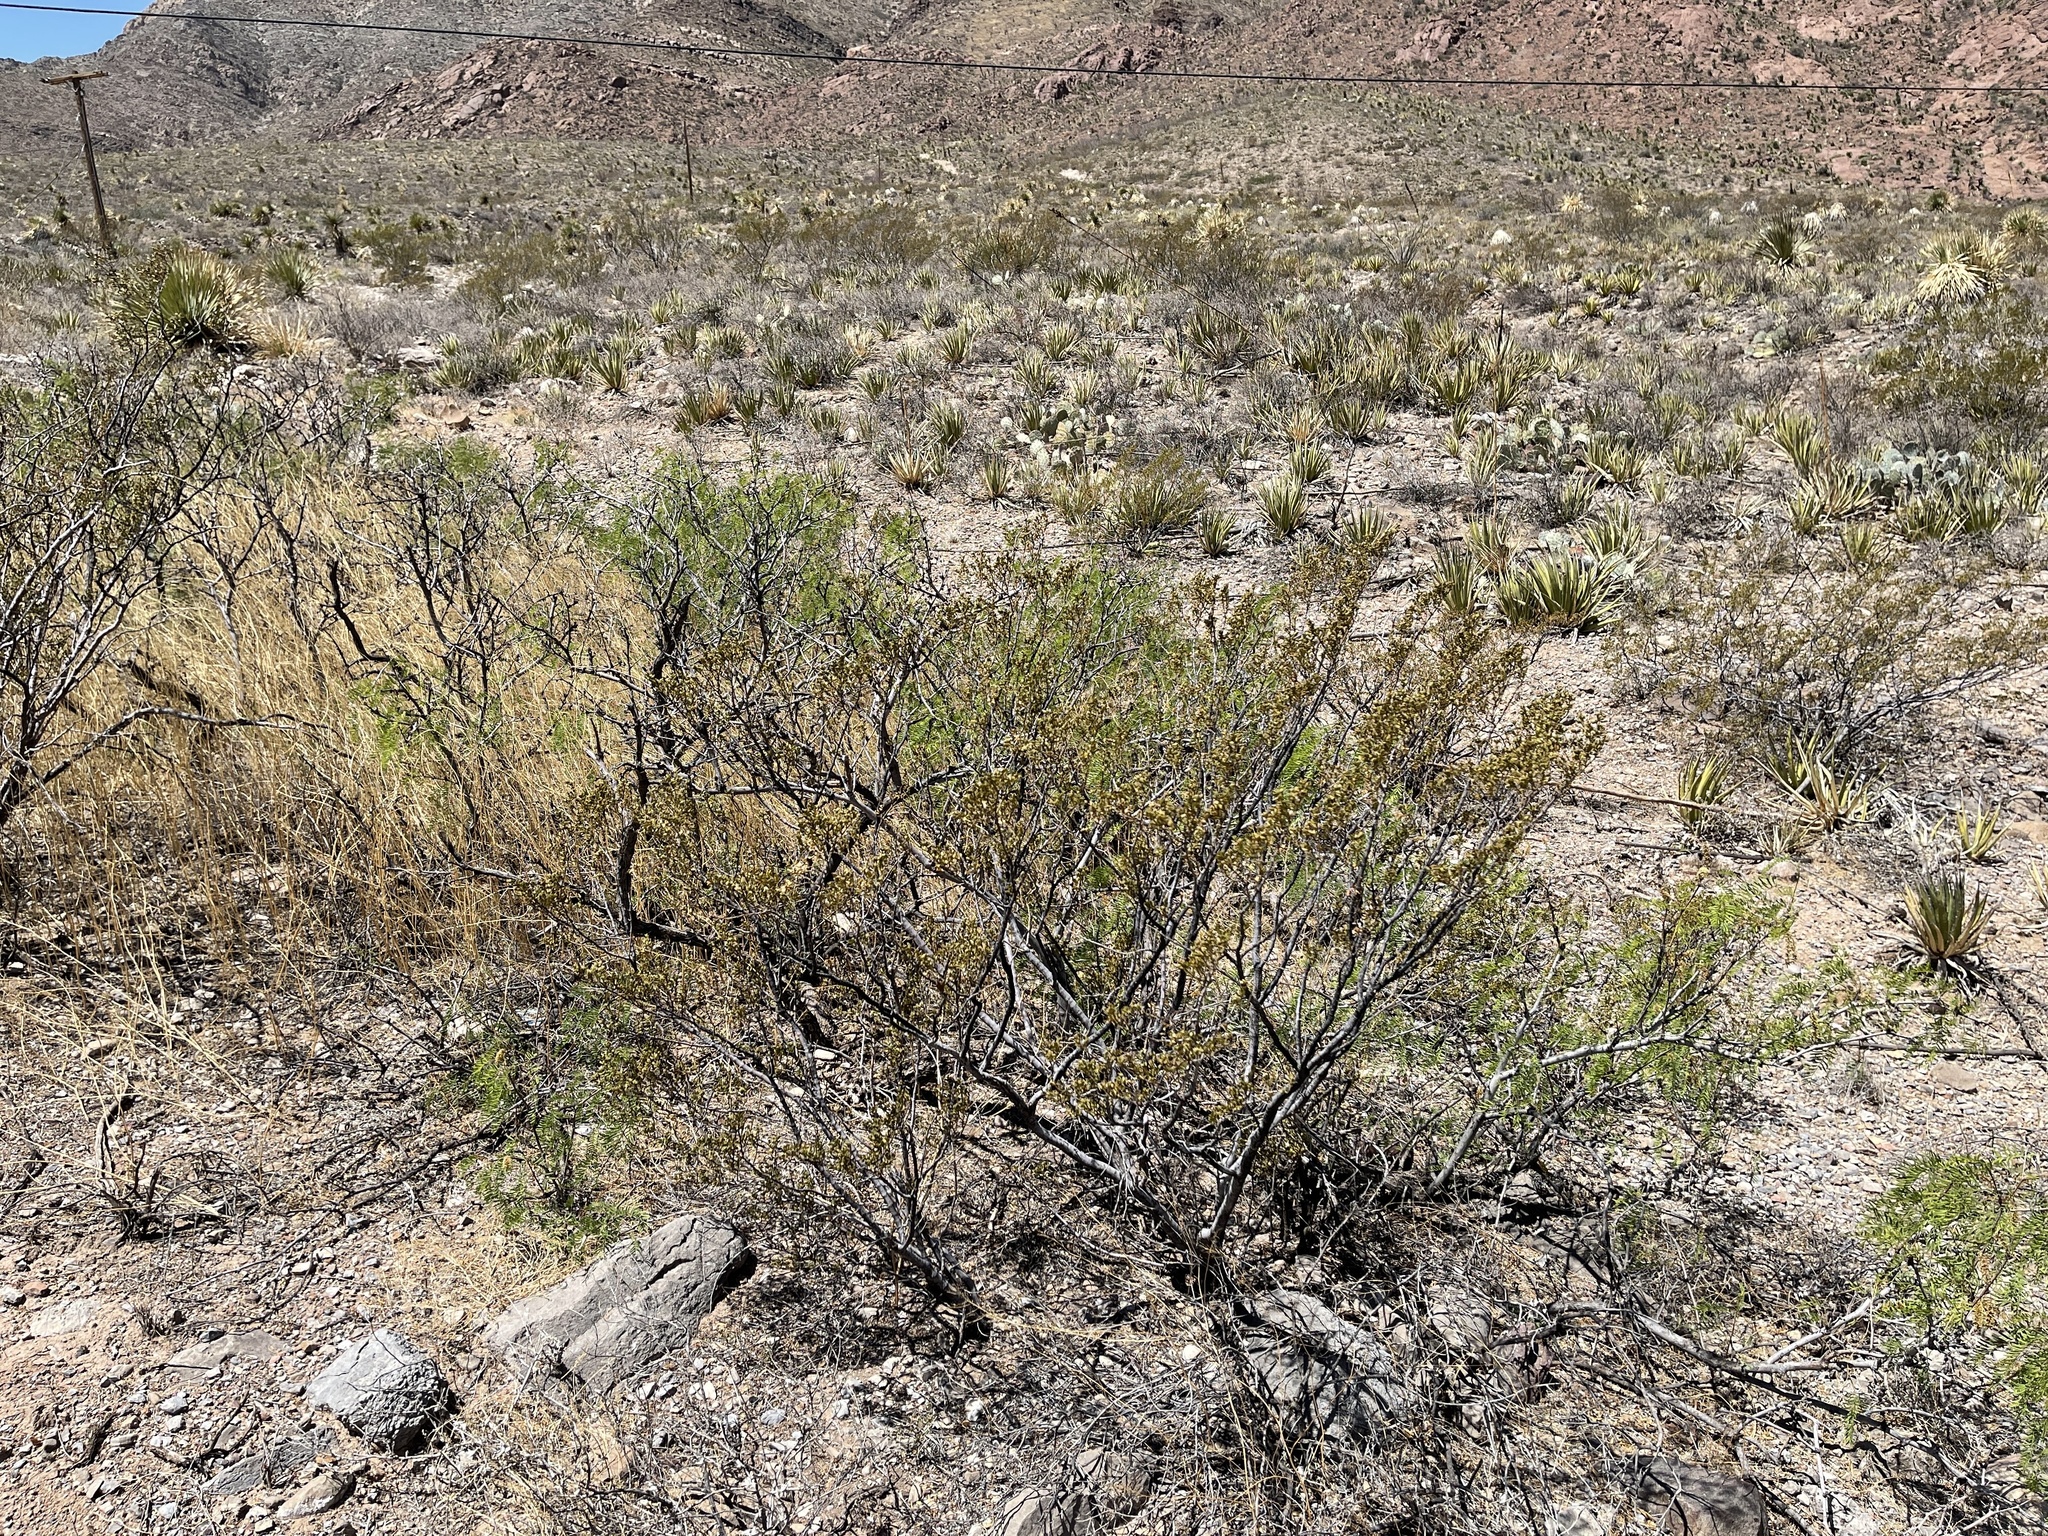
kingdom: Plantae
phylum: Tracheophyta
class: Magnoliopsida
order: Zygophyllales
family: Zygophyllaceae
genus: Larrea
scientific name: Larrea tridentata
